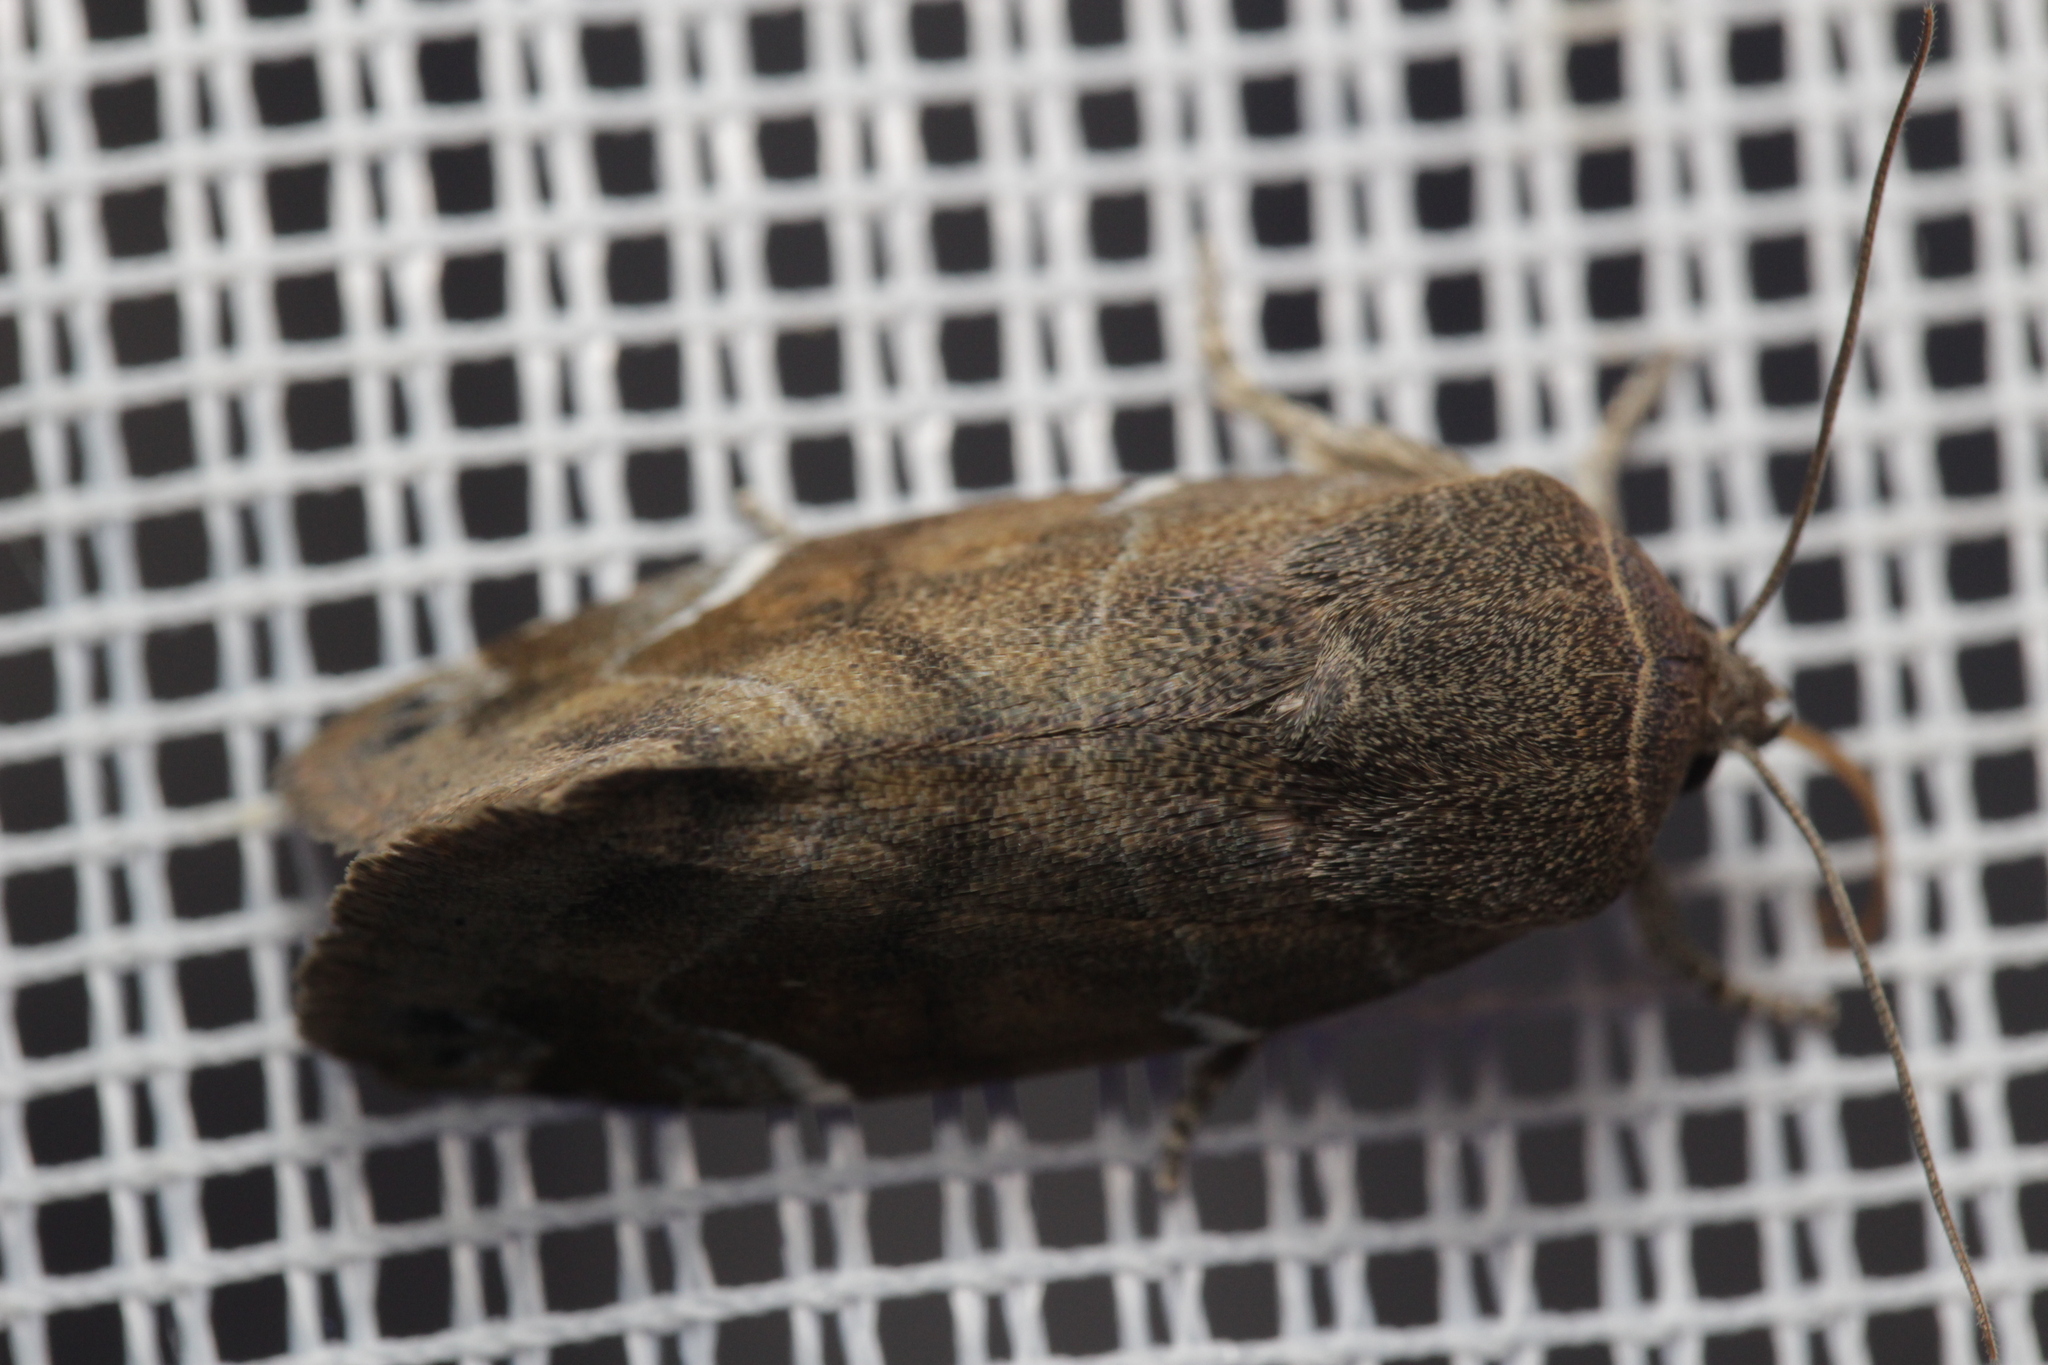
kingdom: Animalia
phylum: Arthropoda
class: Insecta
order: Lepidoptera
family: Noctuidae
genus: Cosmia
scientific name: Cosmia affinis
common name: Lesser-spotted pinion
